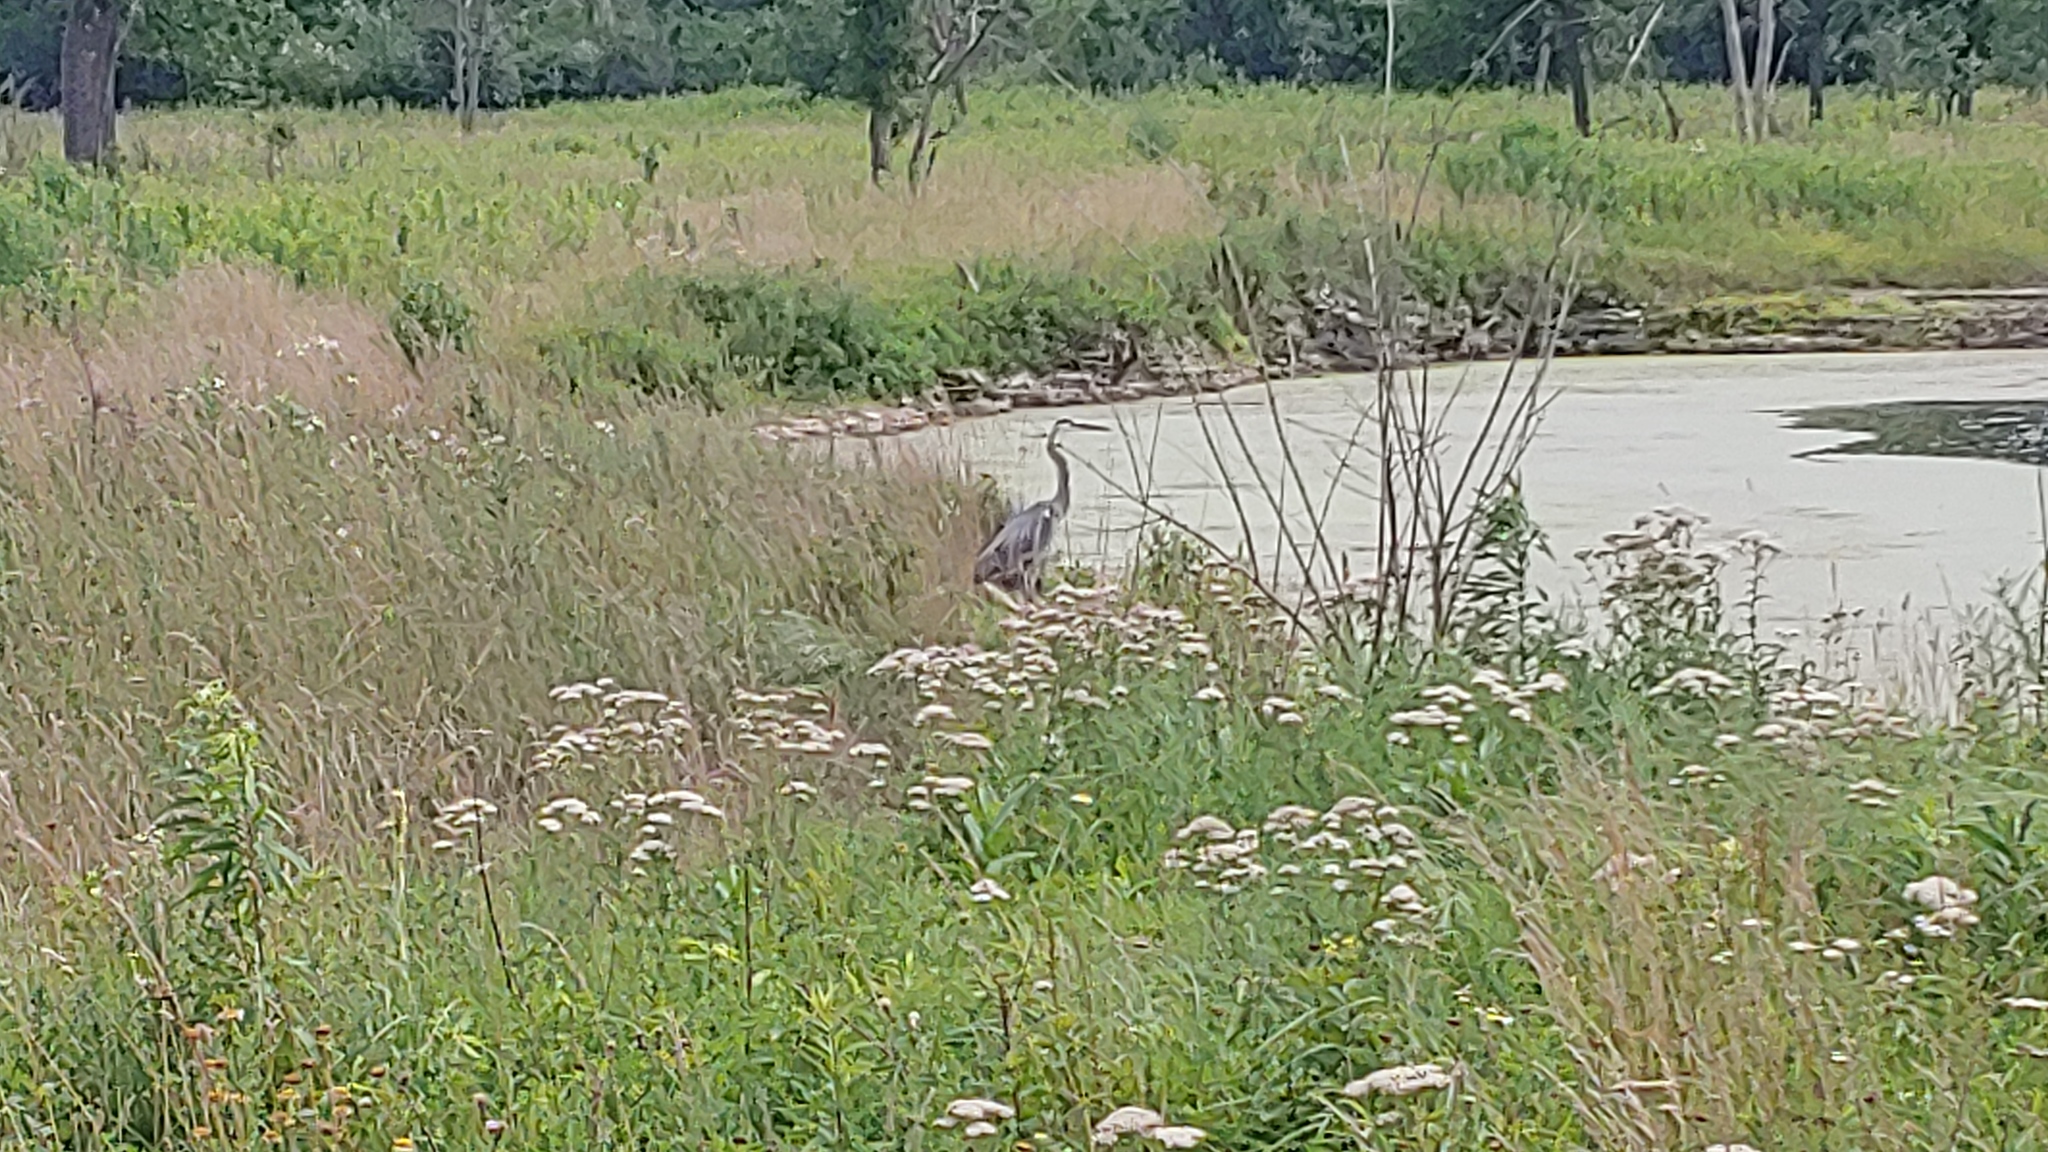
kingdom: Animalia
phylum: Chordata
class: Aves
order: Pelecaniformes
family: Ardeidae
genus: Ardea
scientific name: Ardea herodias
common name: Great blue heron
